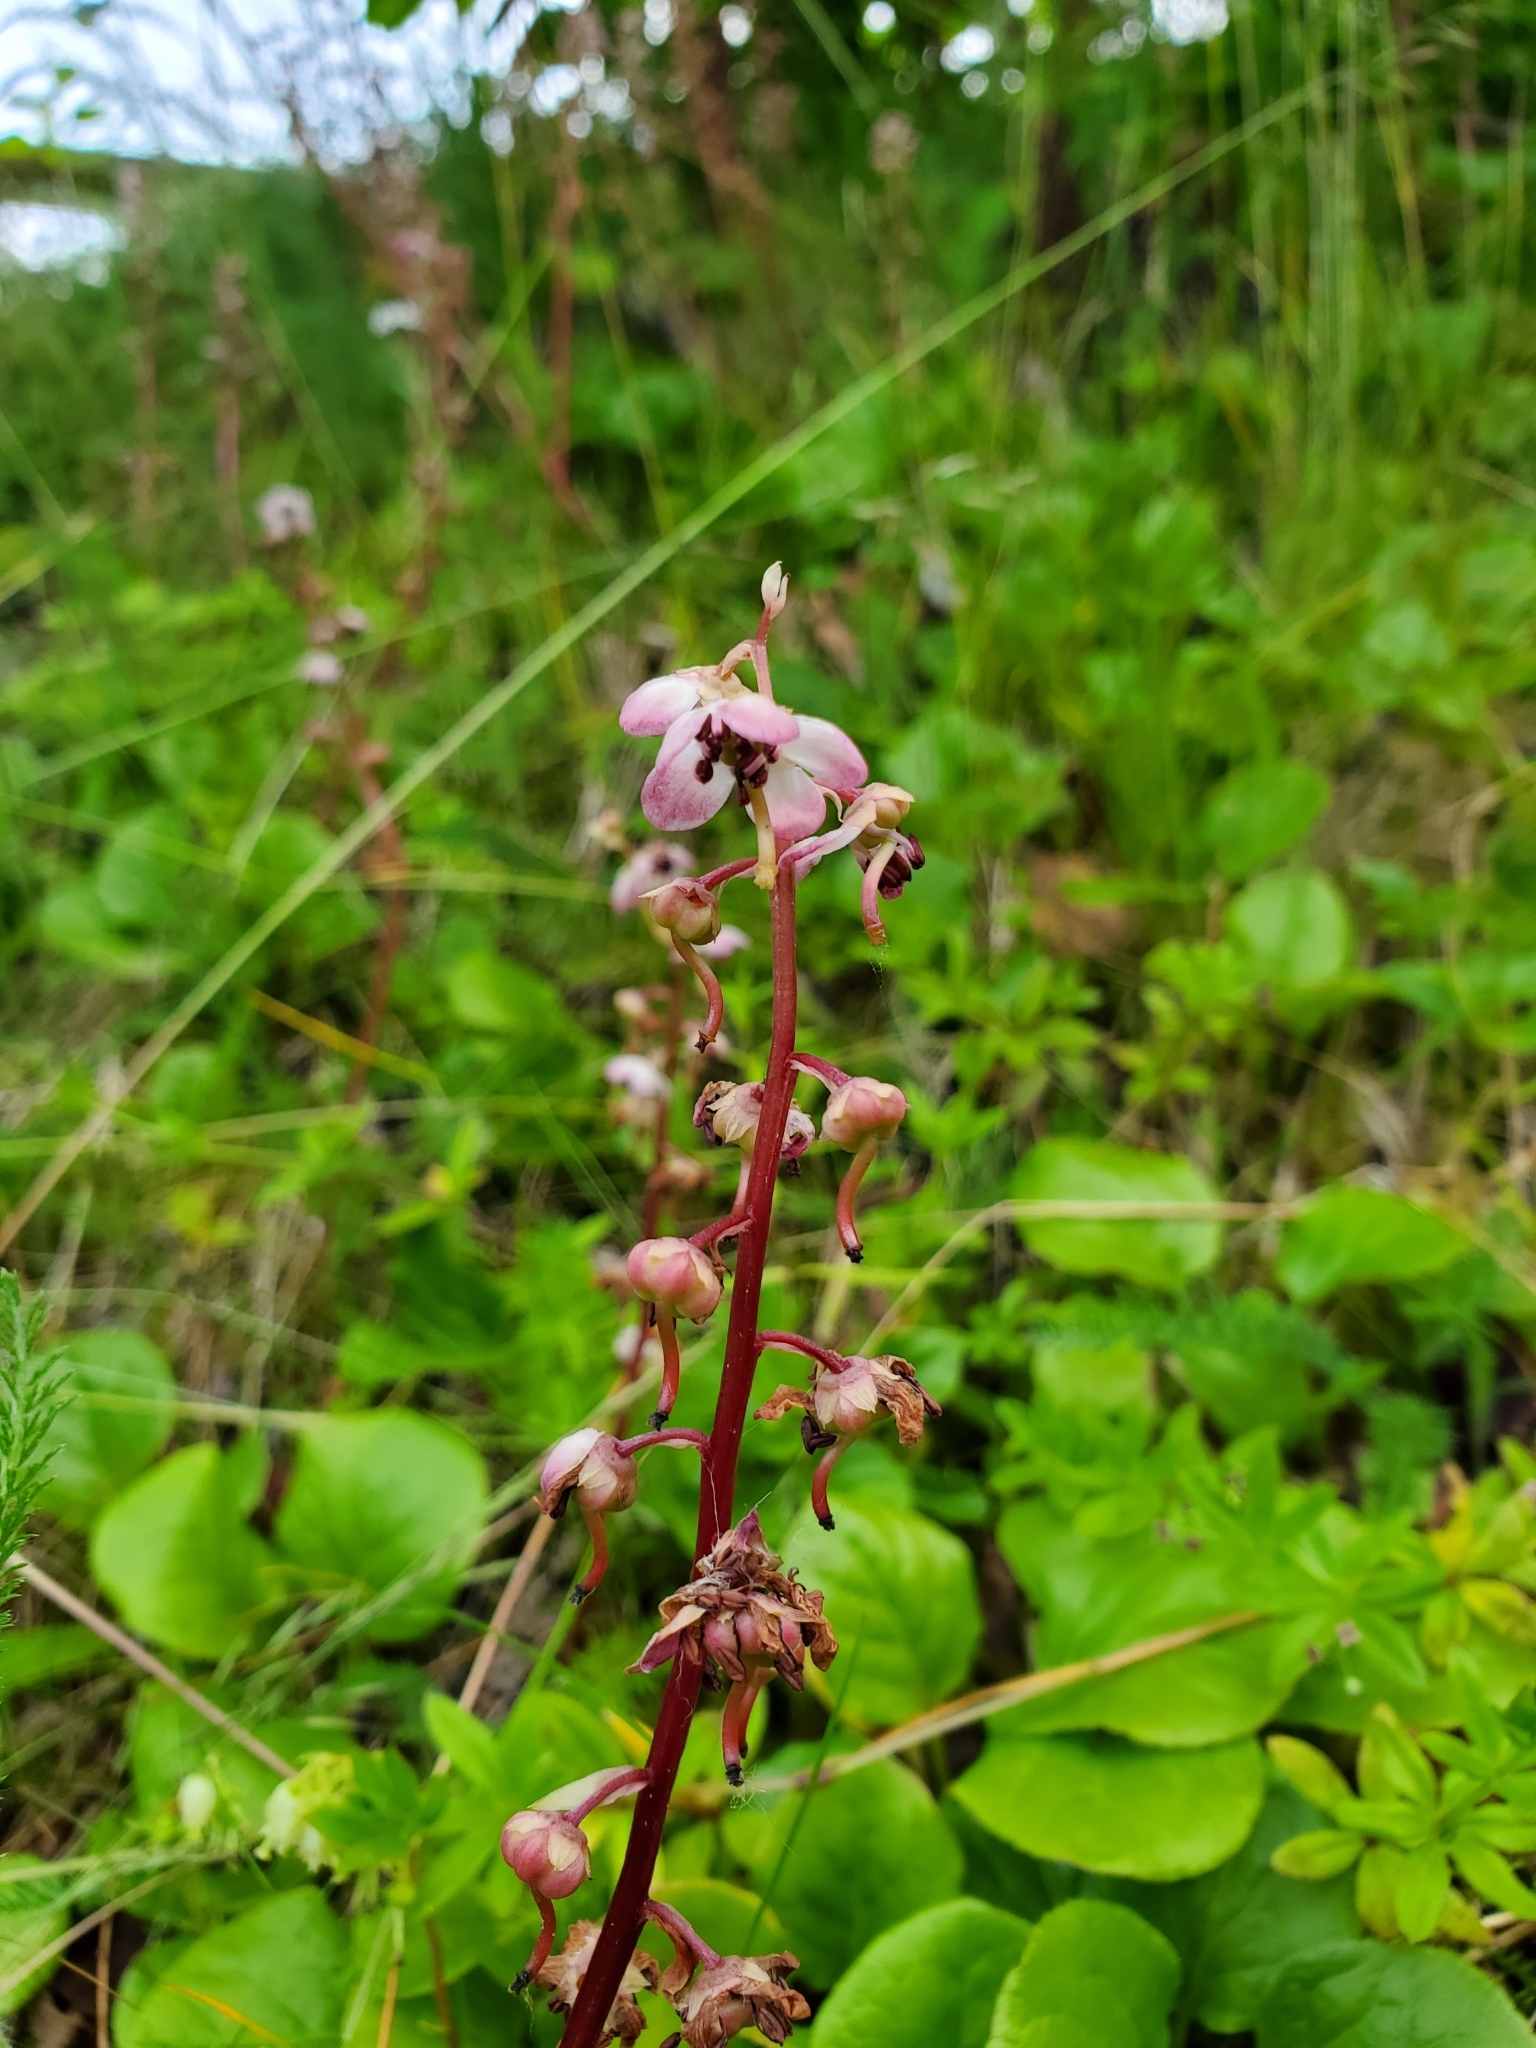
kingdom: Plantae
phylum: Tracheophyta
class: Magnoliopsida
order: Ericales
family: Ericaceae
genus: Pyrola
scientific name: Pyrola asarifolia
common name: Bog wintergreen
